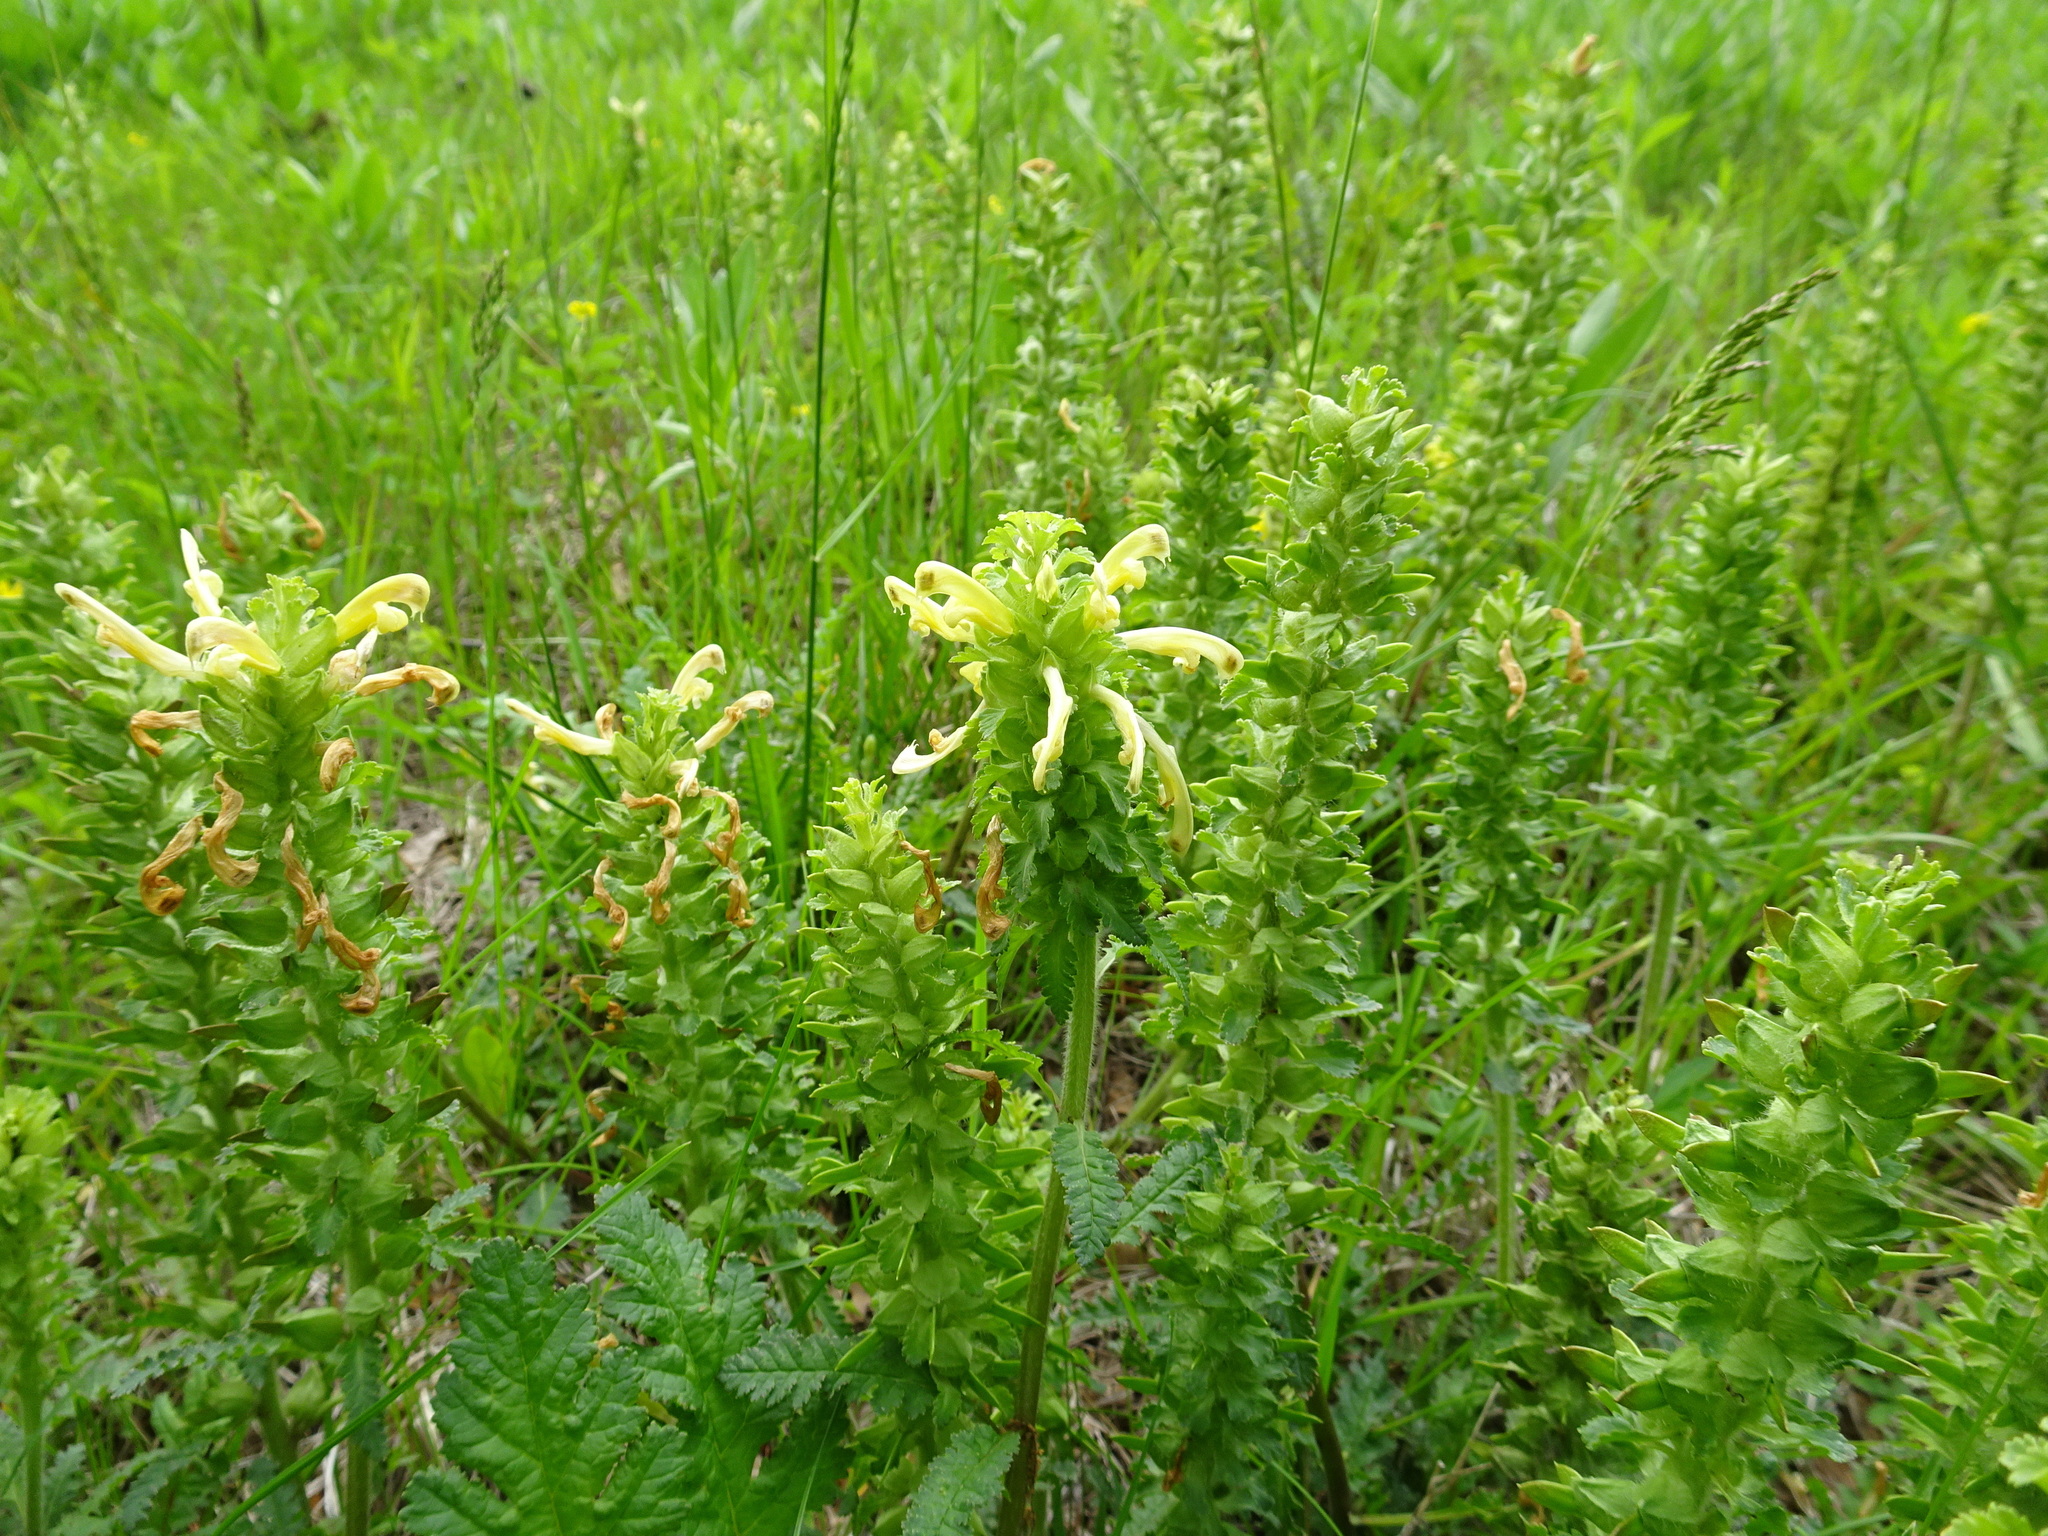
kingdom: Plantae
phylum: Tracheophyta
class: Magnoliopsida
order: Lamiales
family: Orobanchaceae
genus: Pedicularis
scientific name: Pedicularis canadensis
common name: Early lousewort
